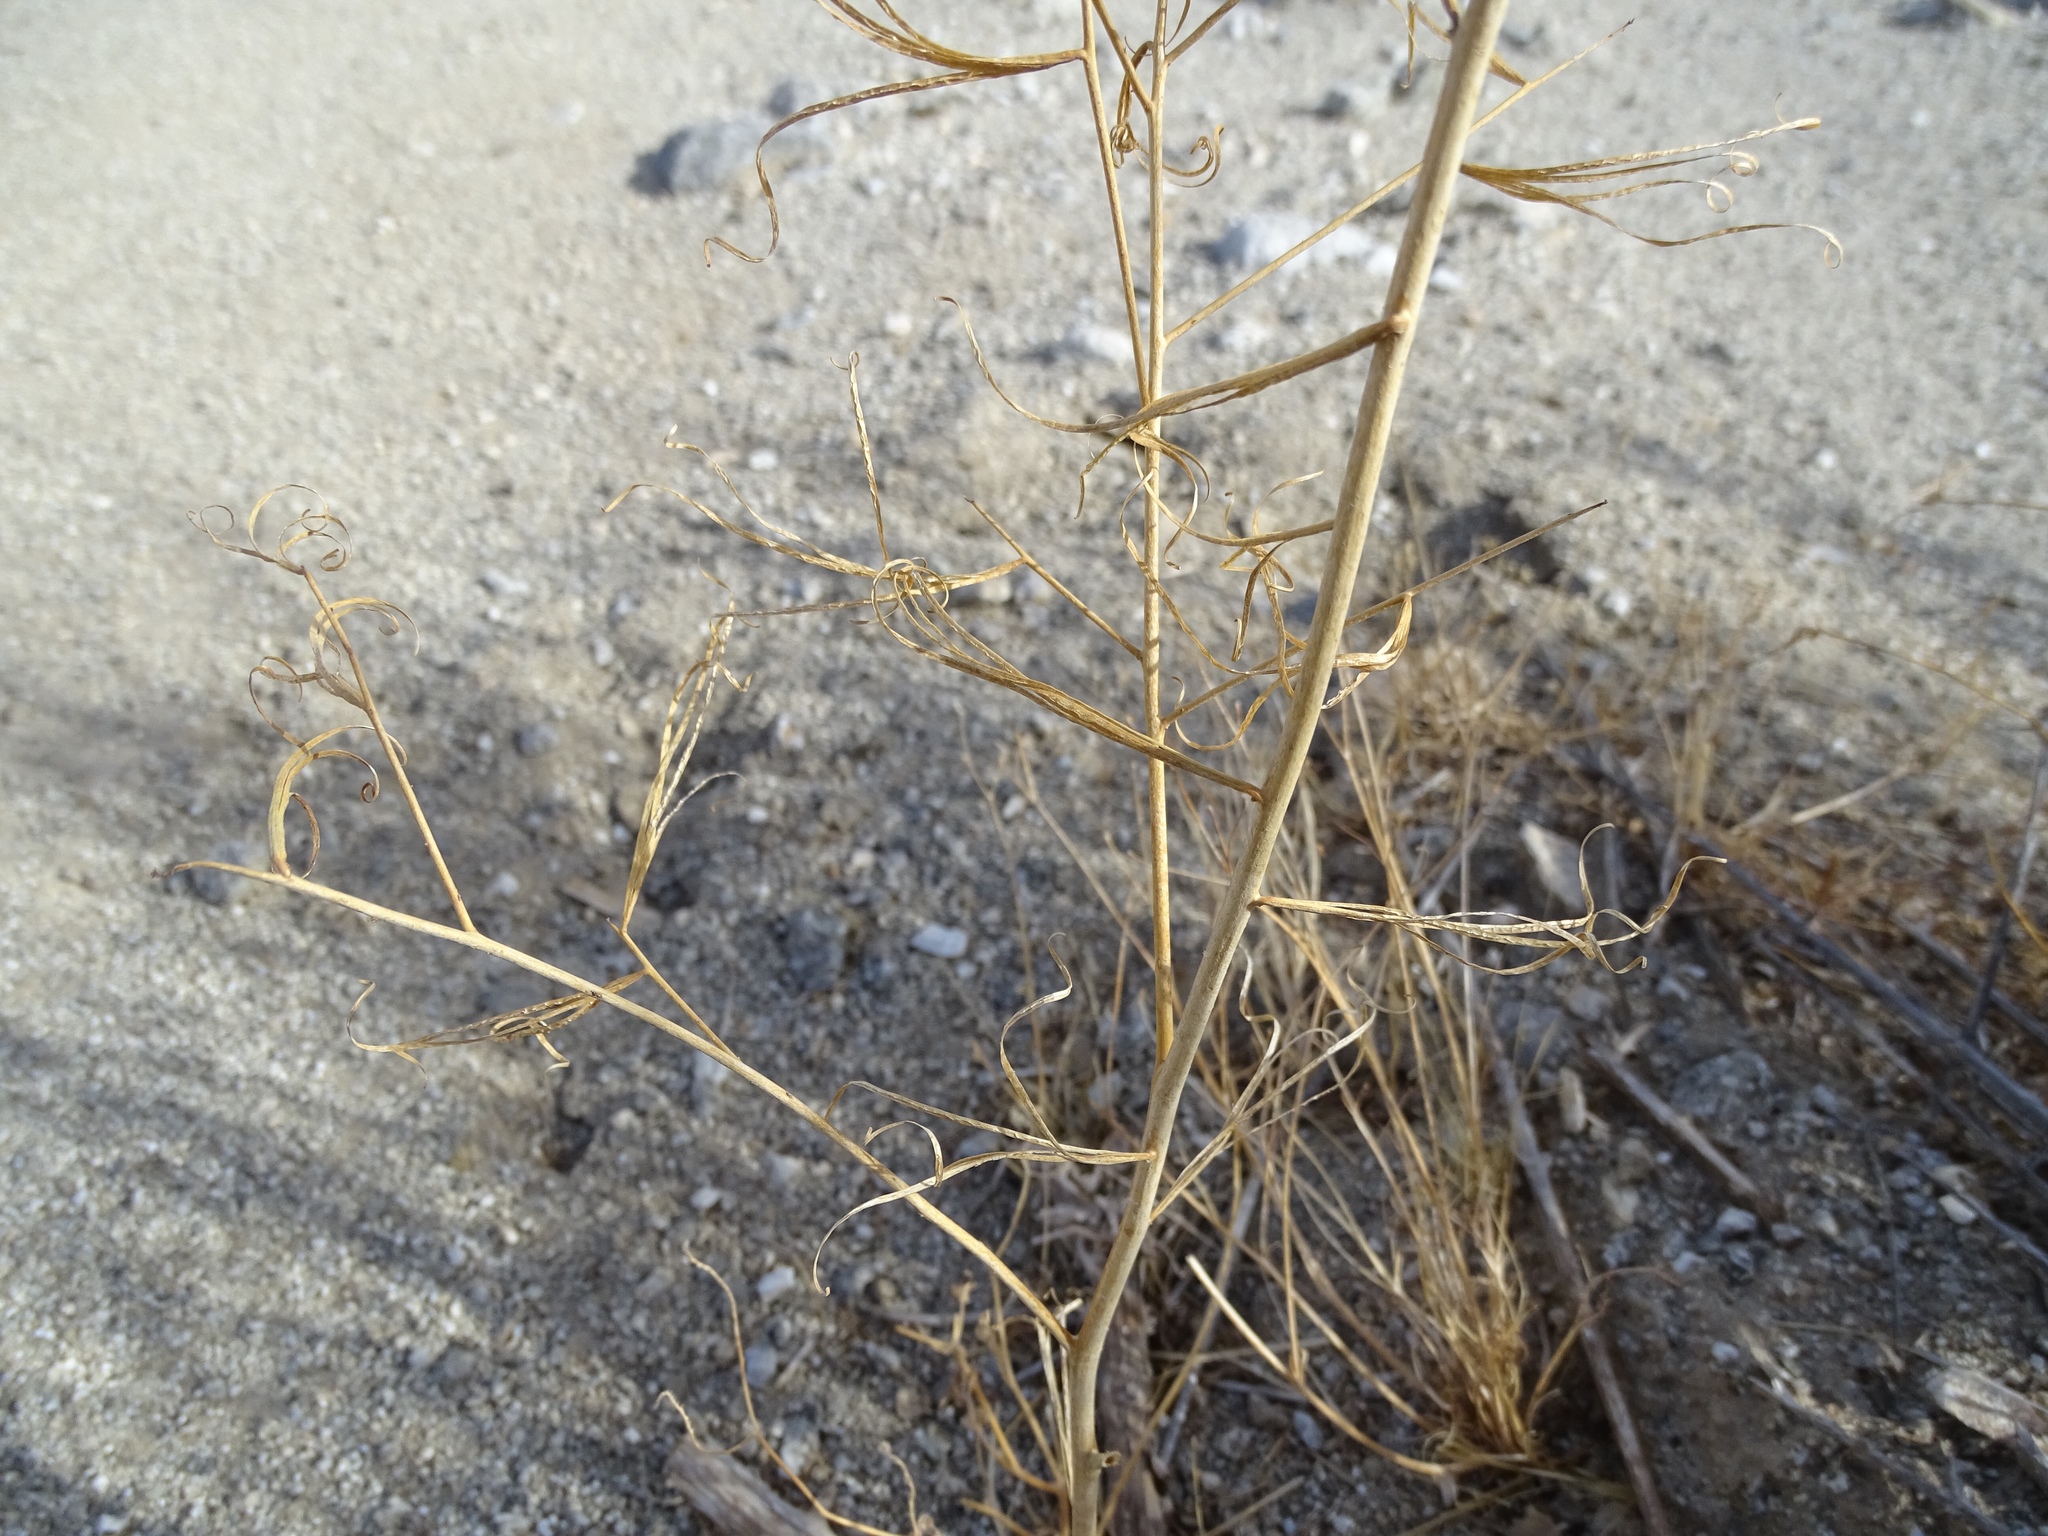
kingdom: Plantae
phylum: Tracheophyta
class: Magnoliopsida
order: Myrtales
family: Onagraceae
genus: Eulobus
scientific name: Eulobus californicus
